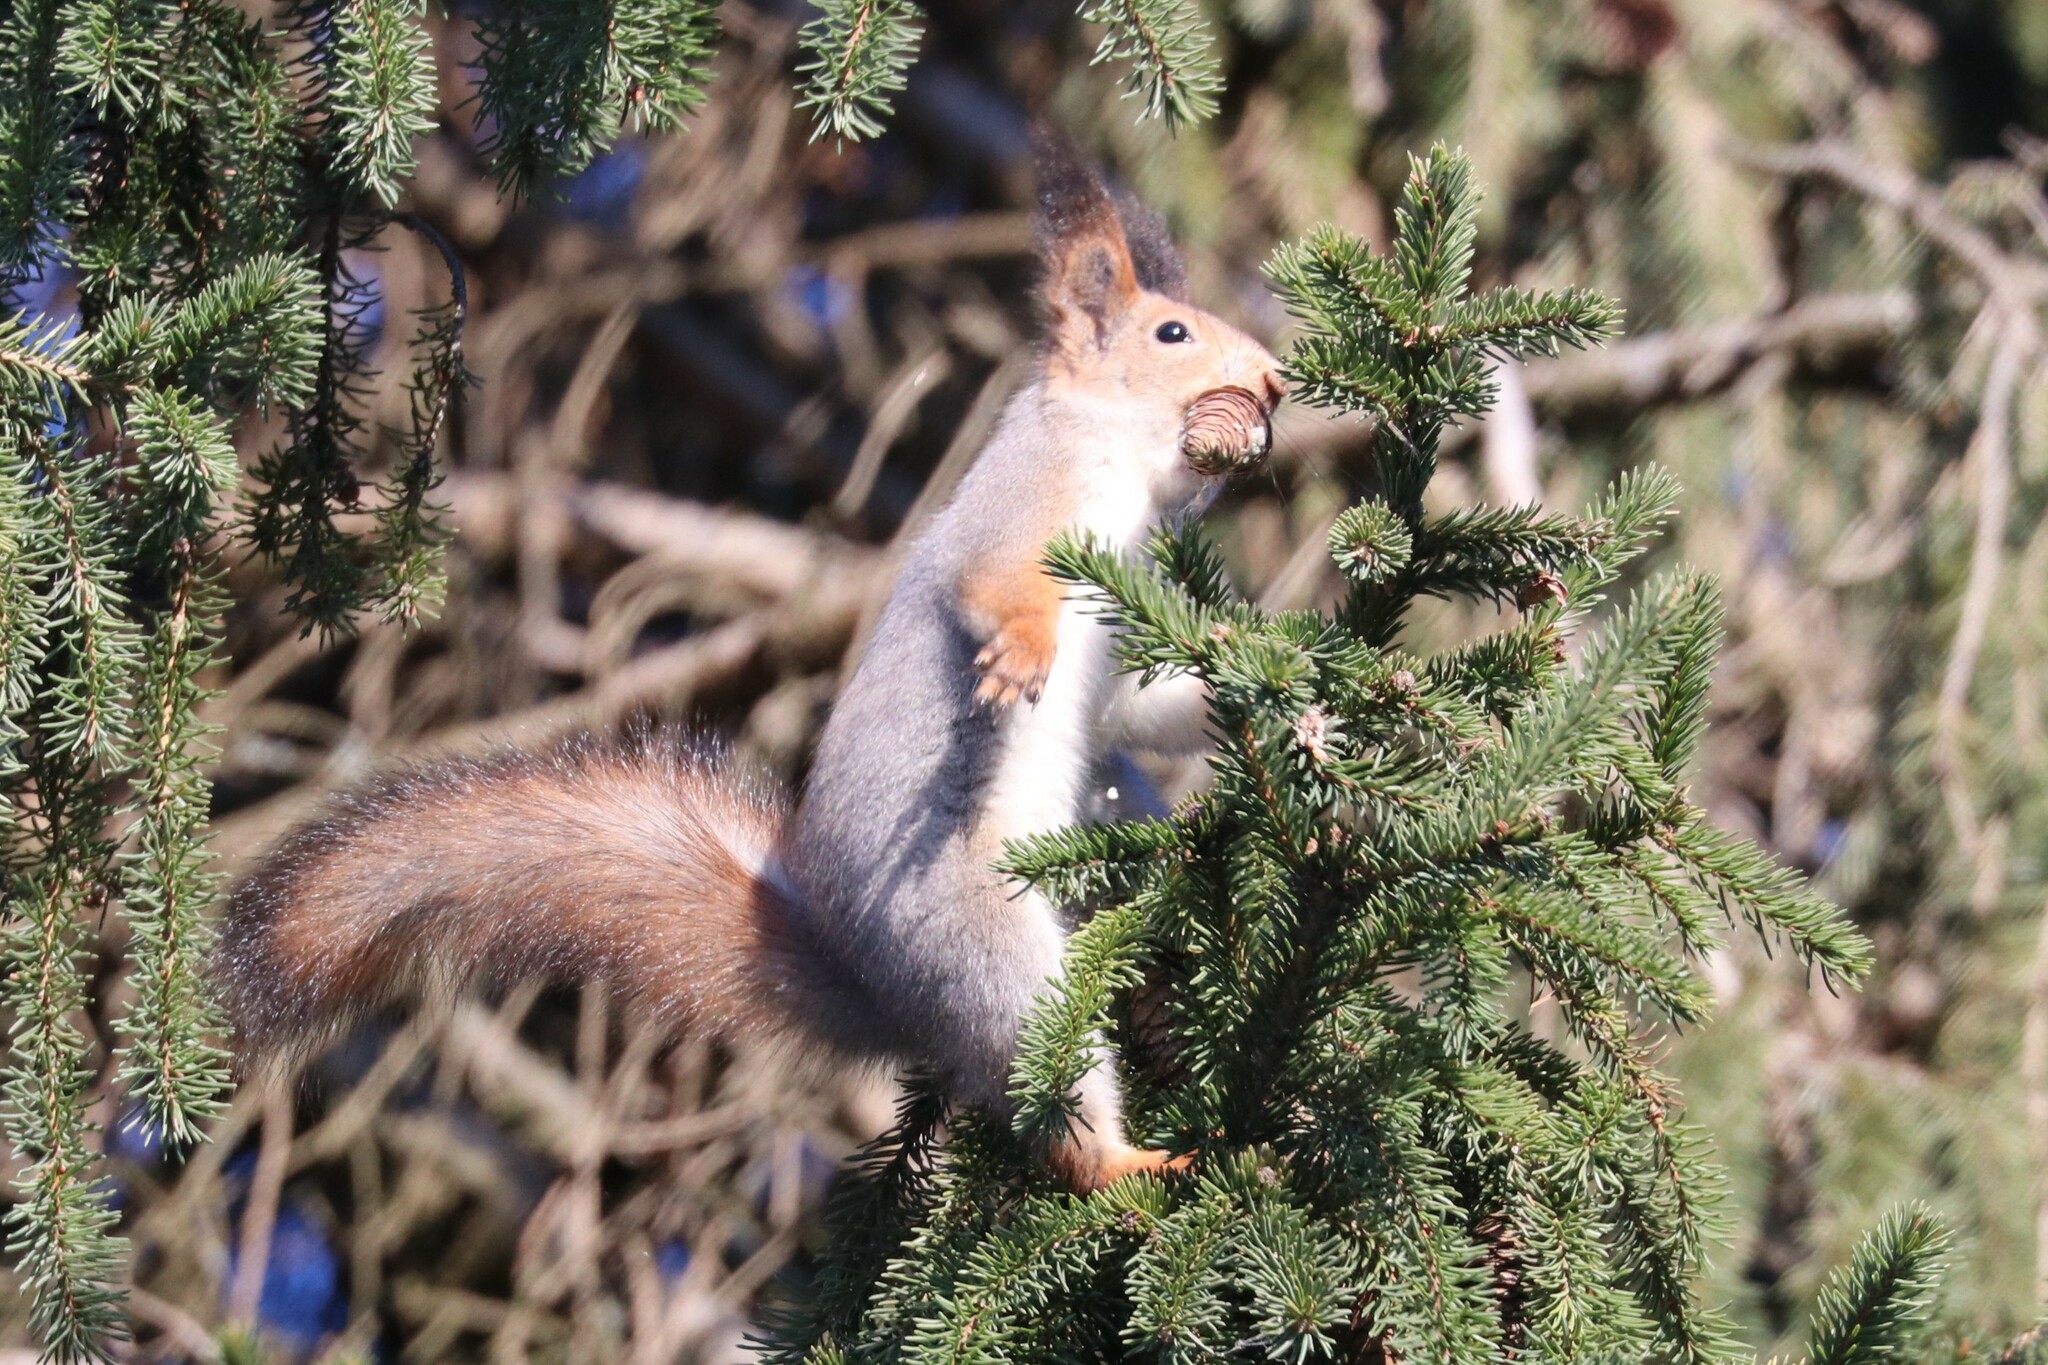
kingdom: Animalia
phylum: Chordata
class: Mammalia
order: Rodentia
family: Sciuridae
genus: Sciurus
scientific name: Sciurus vulgaris
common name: Eurasian red squirrel
